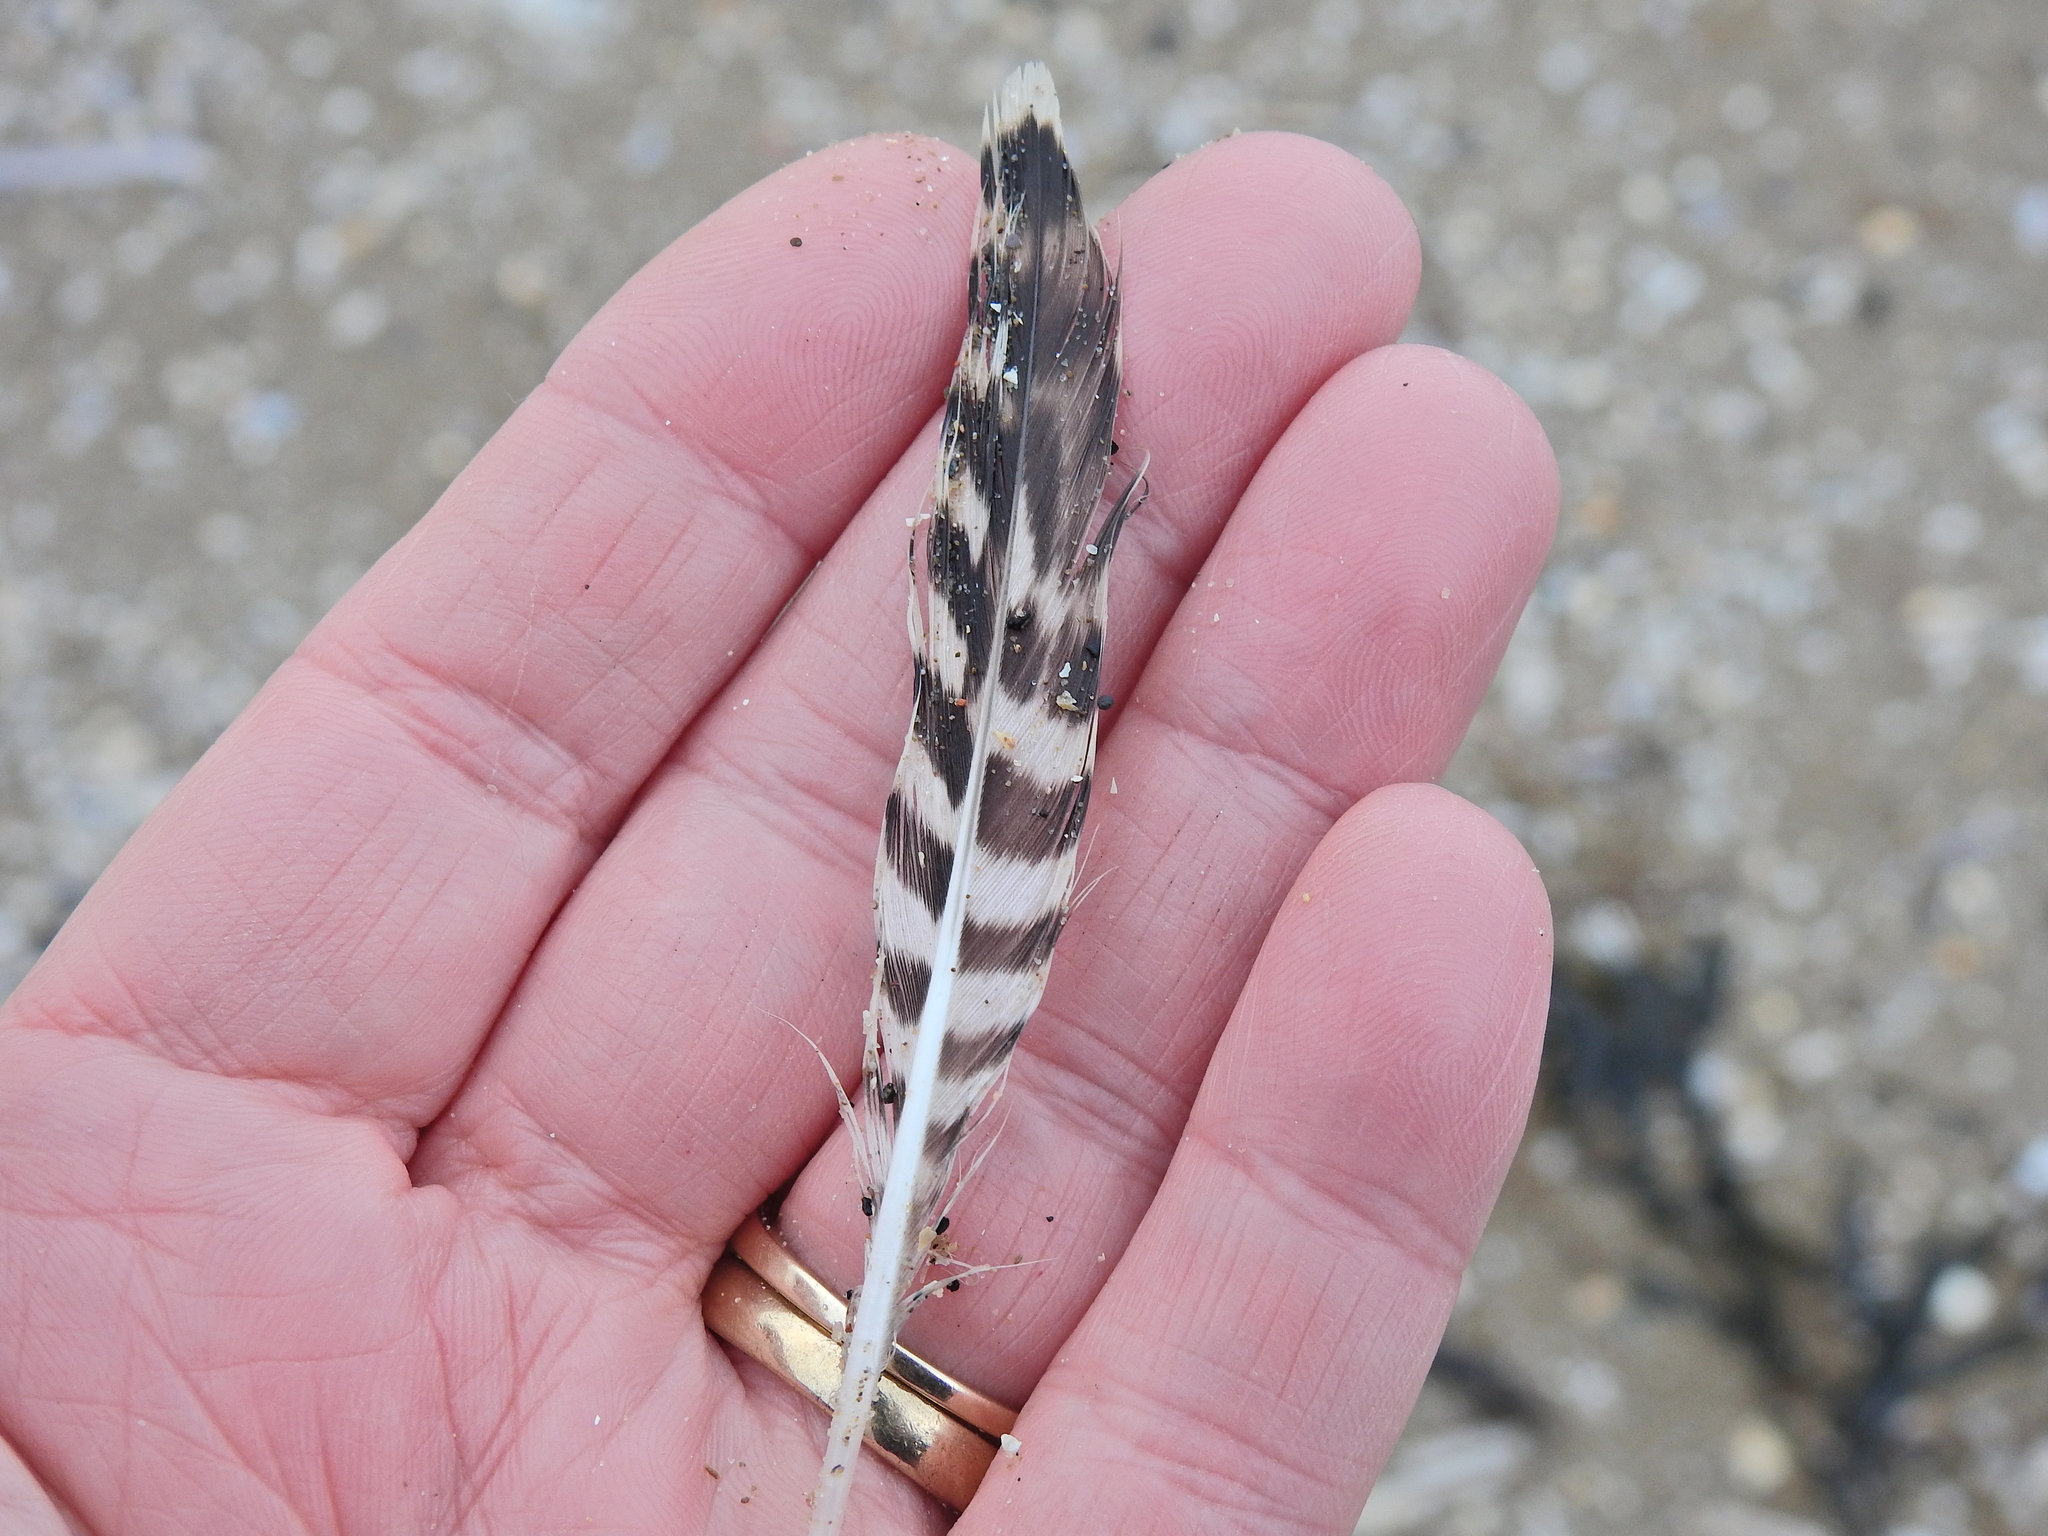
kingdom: Animalia
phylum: Chordata
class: Aves
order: Charadriiformes
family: Scolopacidae
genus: Limosa
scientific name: Limosa lapponica
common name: Bar-tailed godwit
